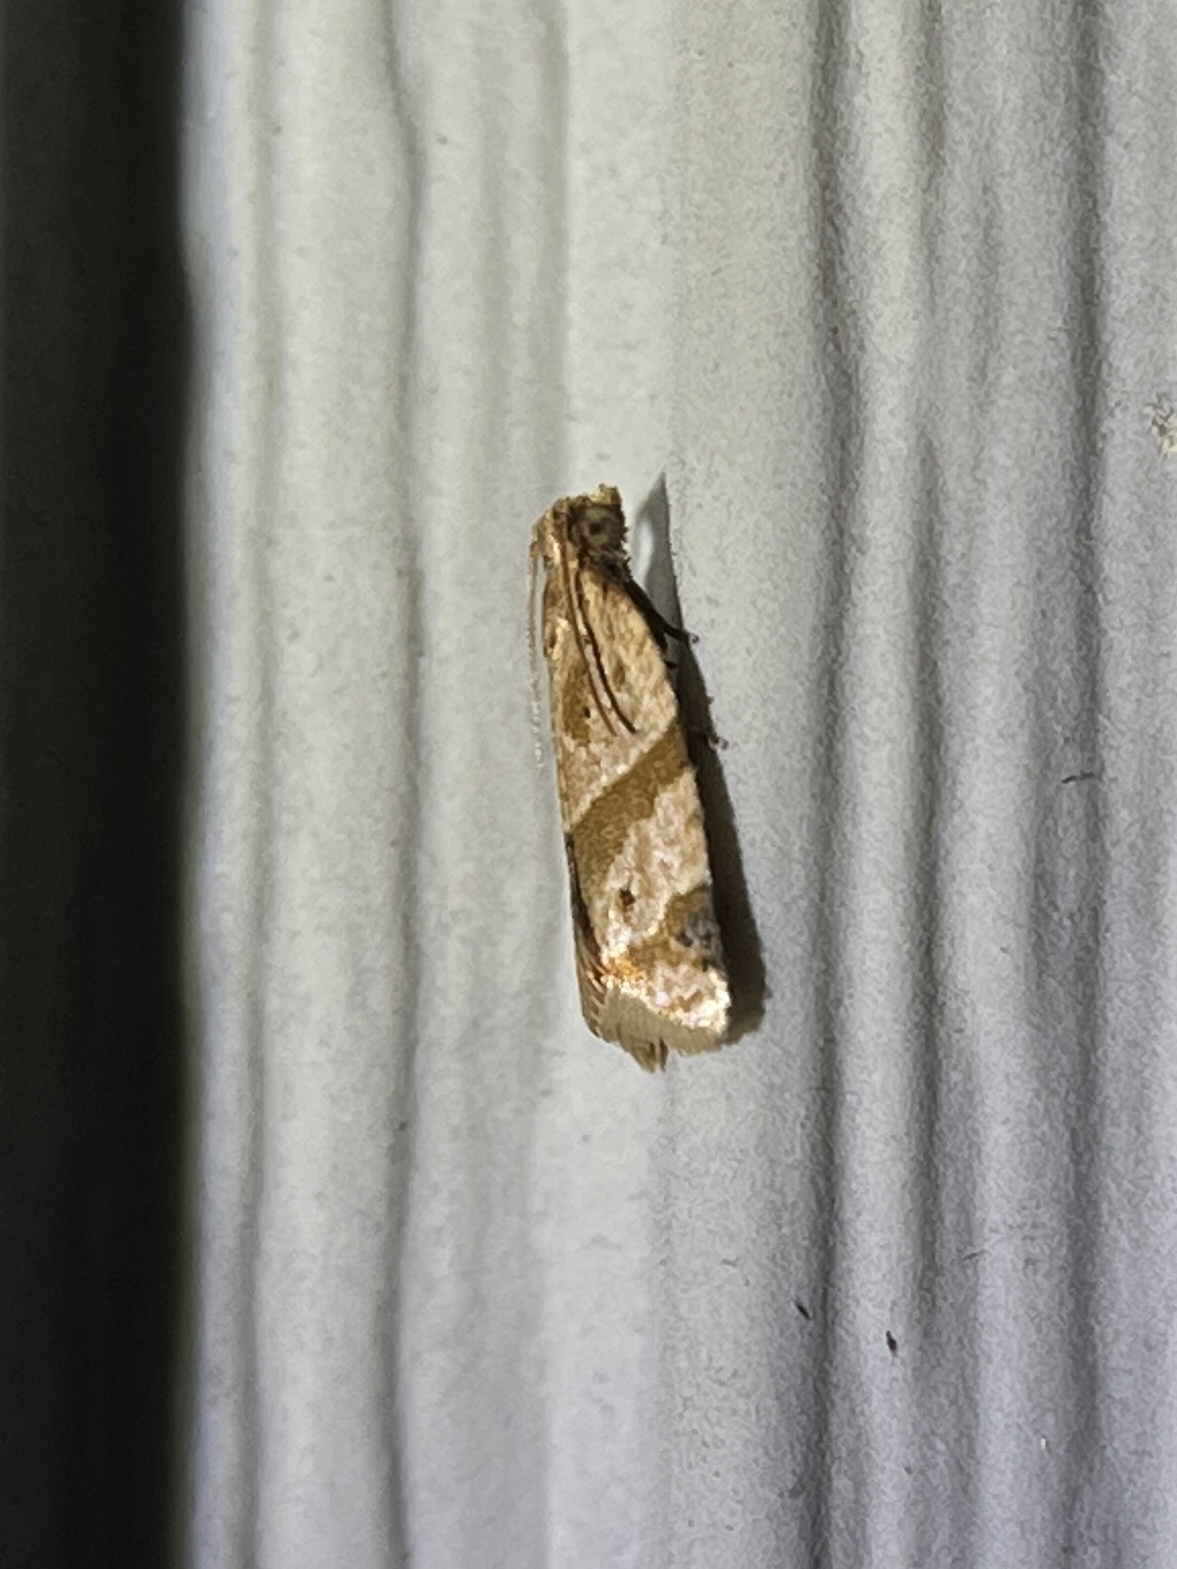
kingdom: Animalia
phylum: Arthropoda
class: Insecta
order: Lepidoptera
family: Tortricidae
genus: Clepsis
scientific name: Clepsis peritana
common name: Garden tortrix
